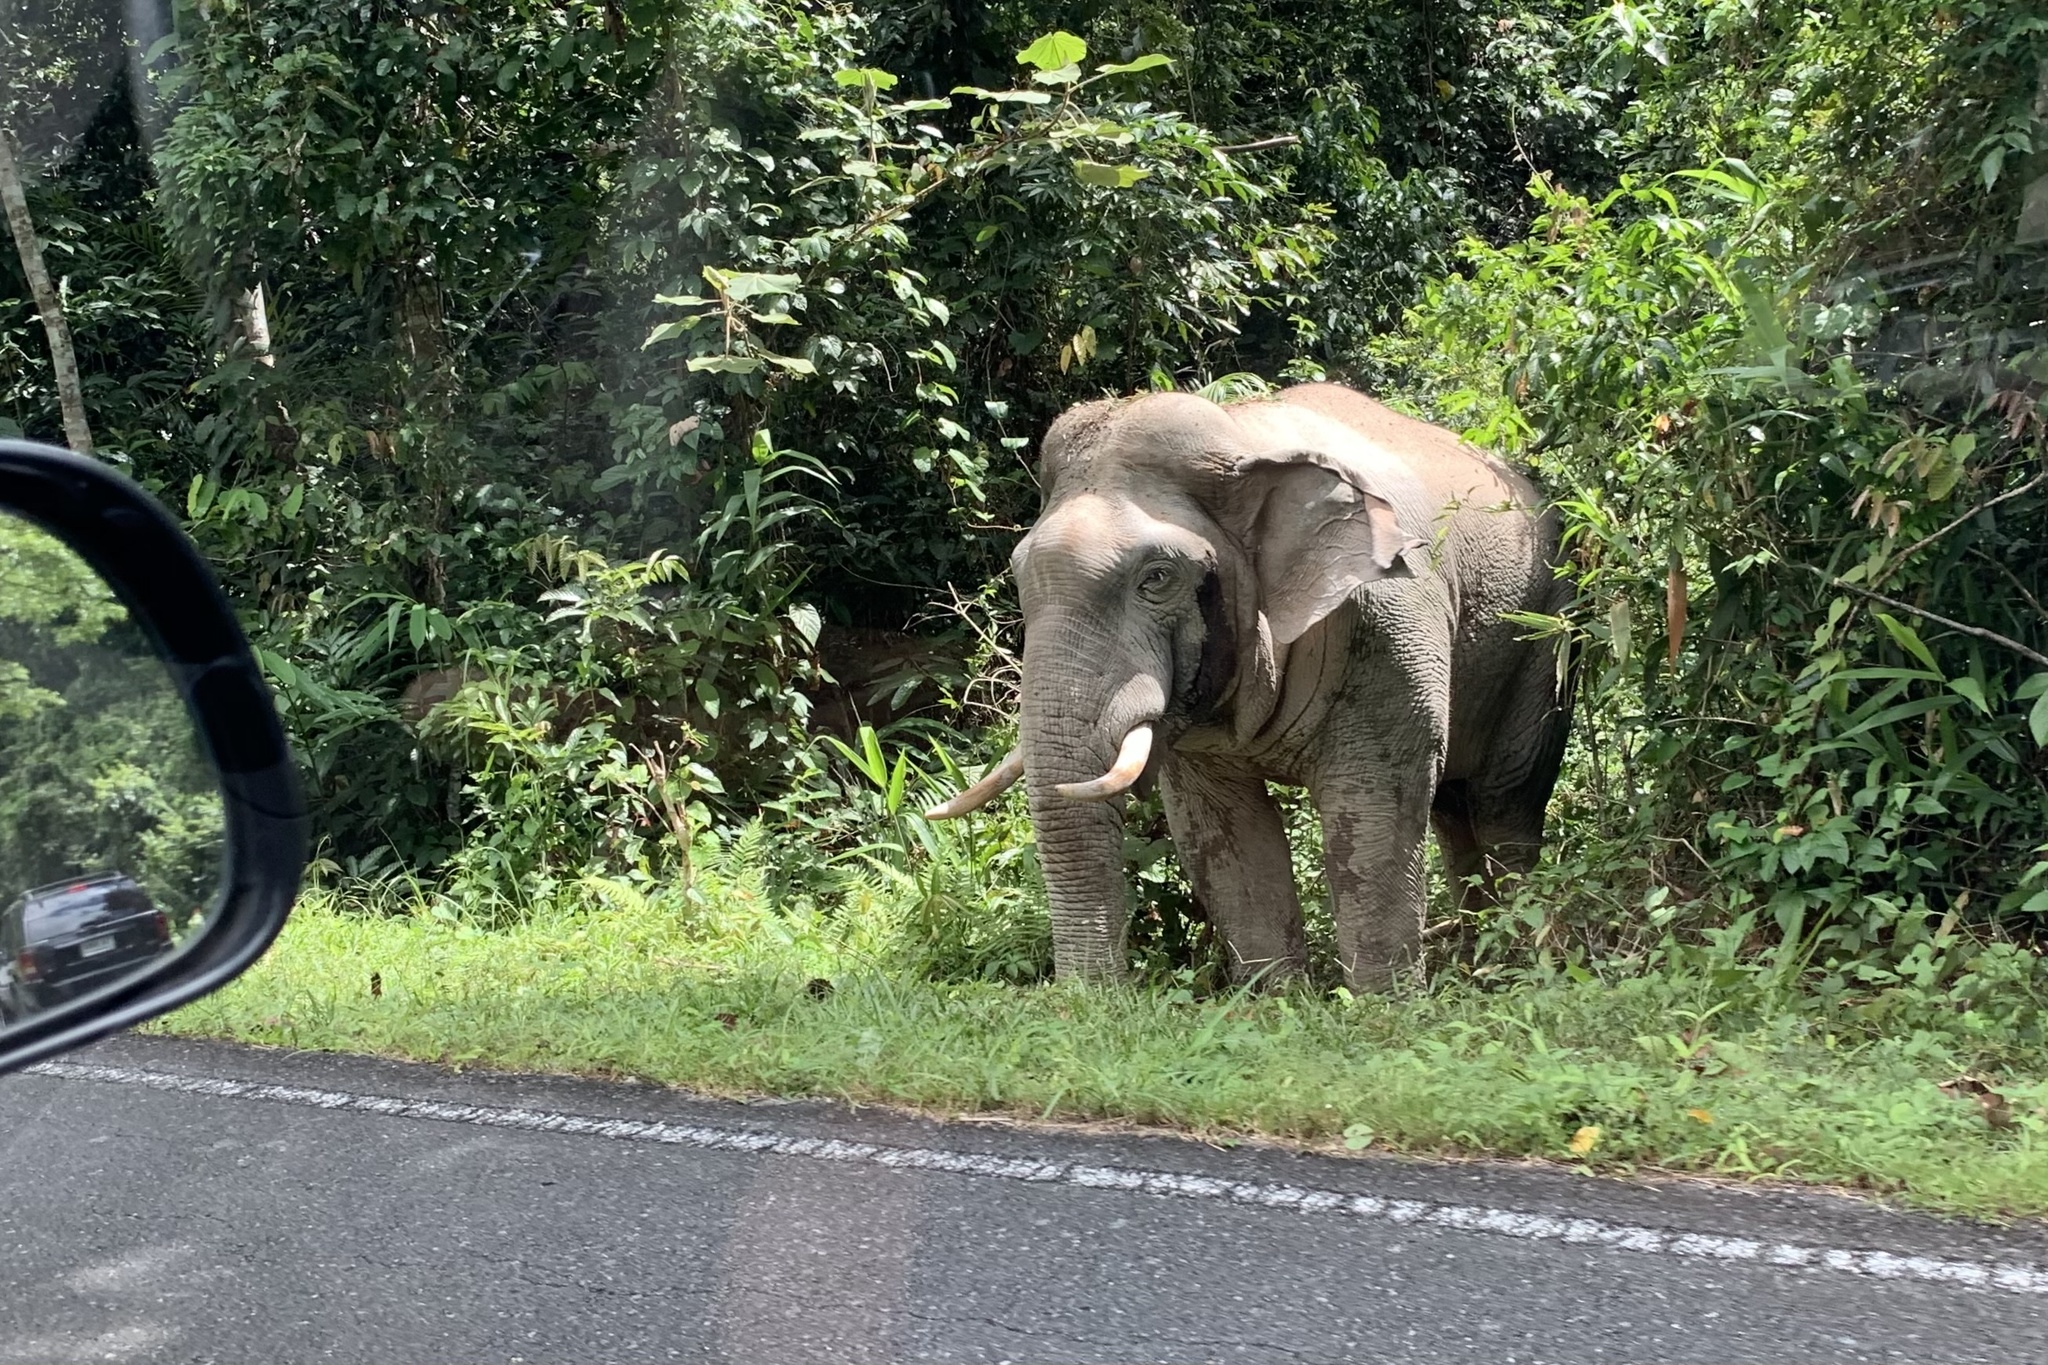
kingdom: Animalia
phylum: Chordata
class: Mammalia
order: Proboscidea
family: Elephantidae
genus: Elephas
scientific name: Elephas maximus
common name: Asian elephant
